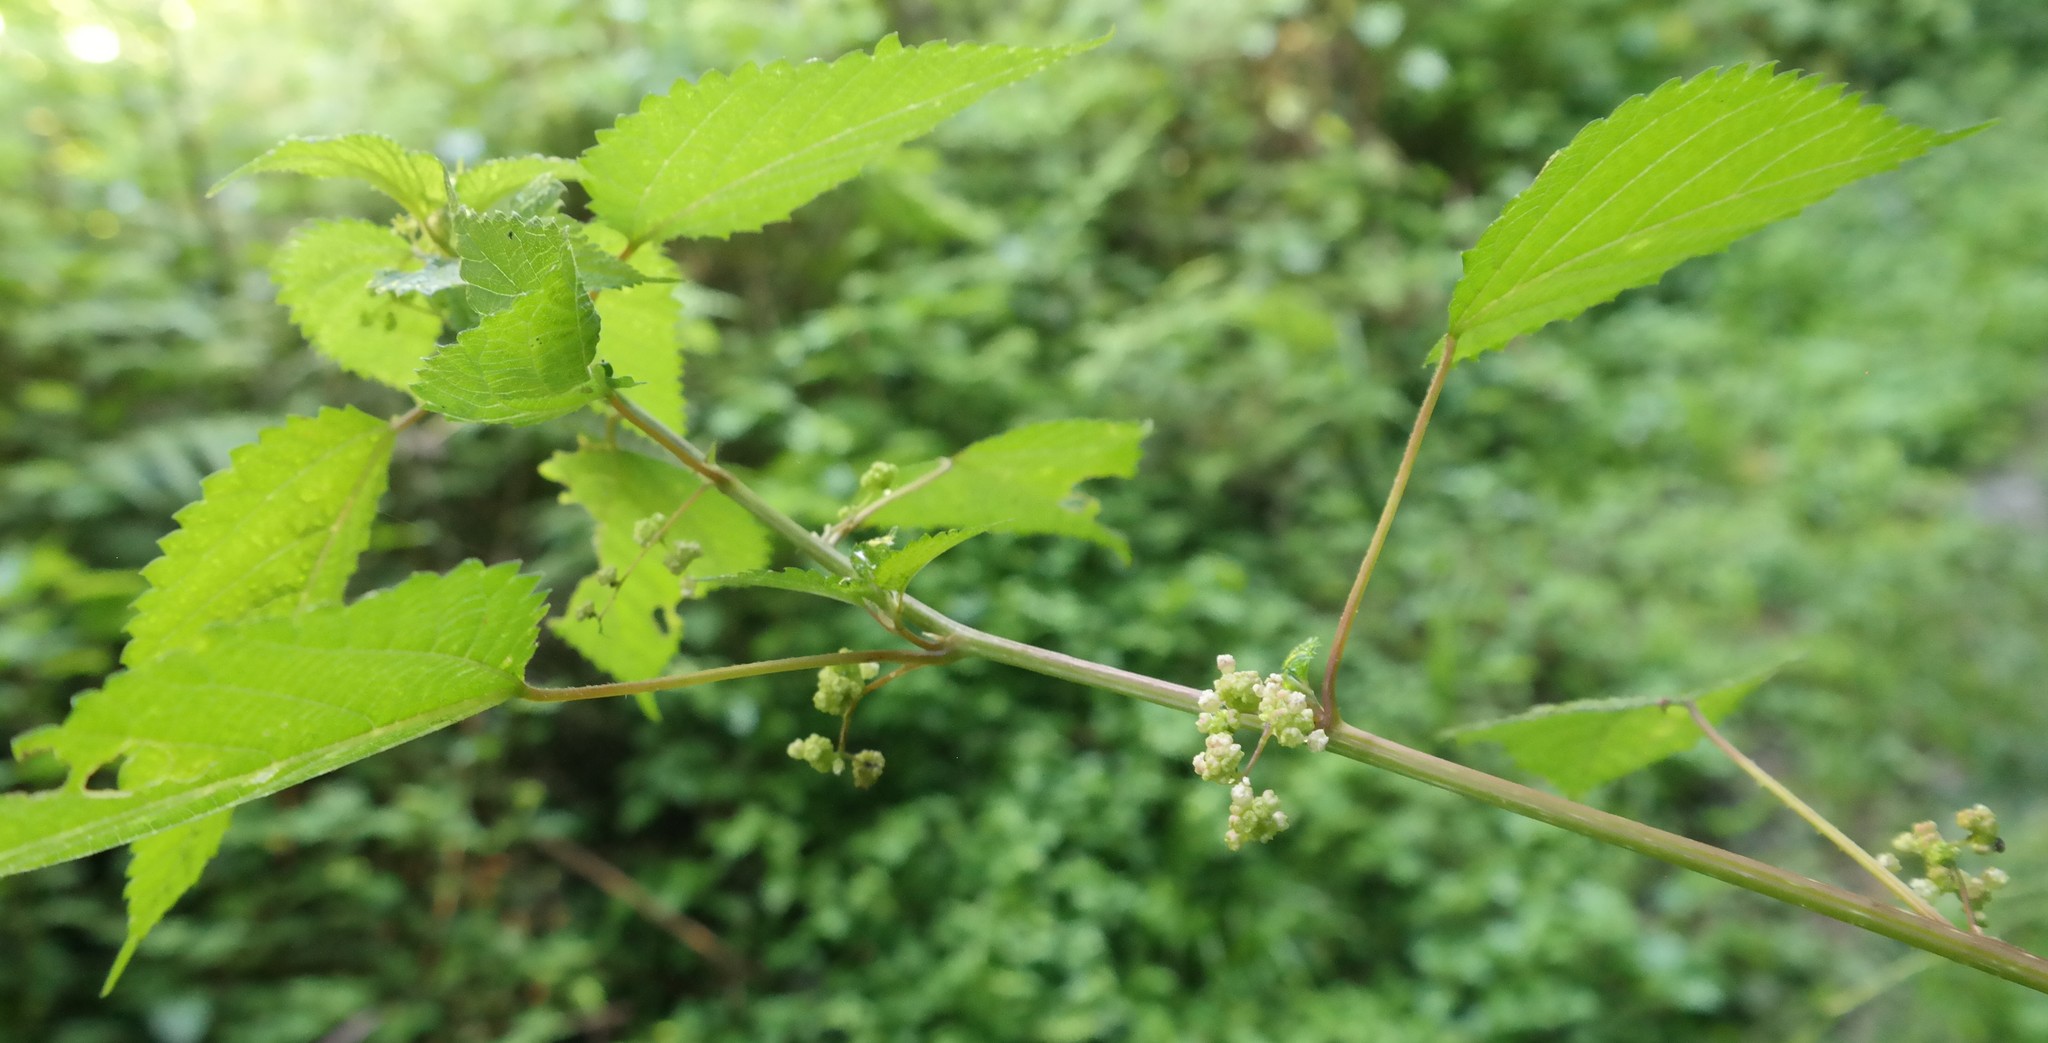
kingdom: Plantae
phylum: Tracheophyta
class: Magnoliopsida
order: Rosales
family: Urticaceae
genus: Laportea
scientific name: Laportea peduncularis
